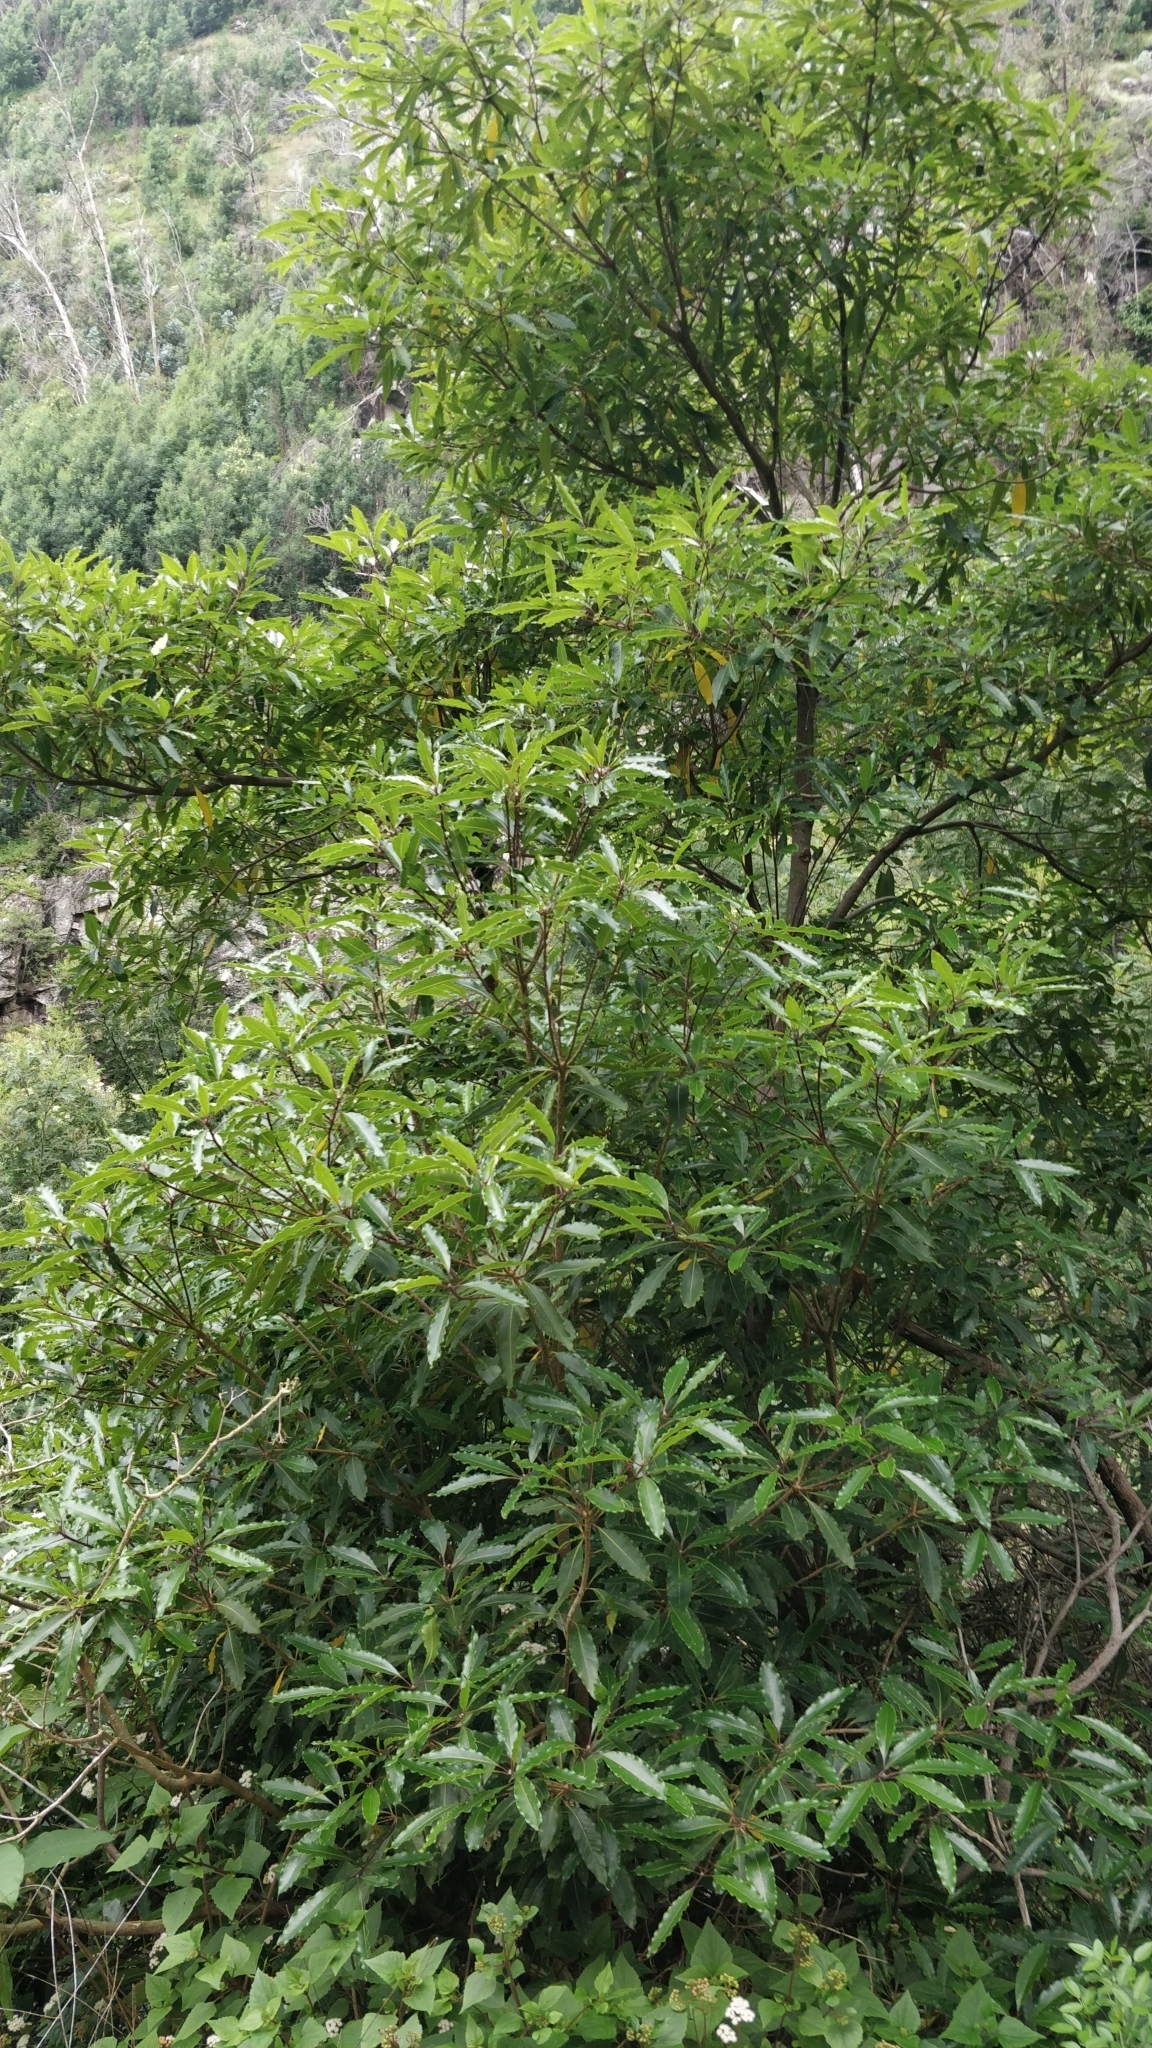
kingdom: Plantae
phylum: Tracheophyta
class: Magnoliopsida
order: Apiales
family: Pittosporaceae
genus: Pittosporum
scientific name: Pittosporum undulatum
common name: Australian cheesewood
